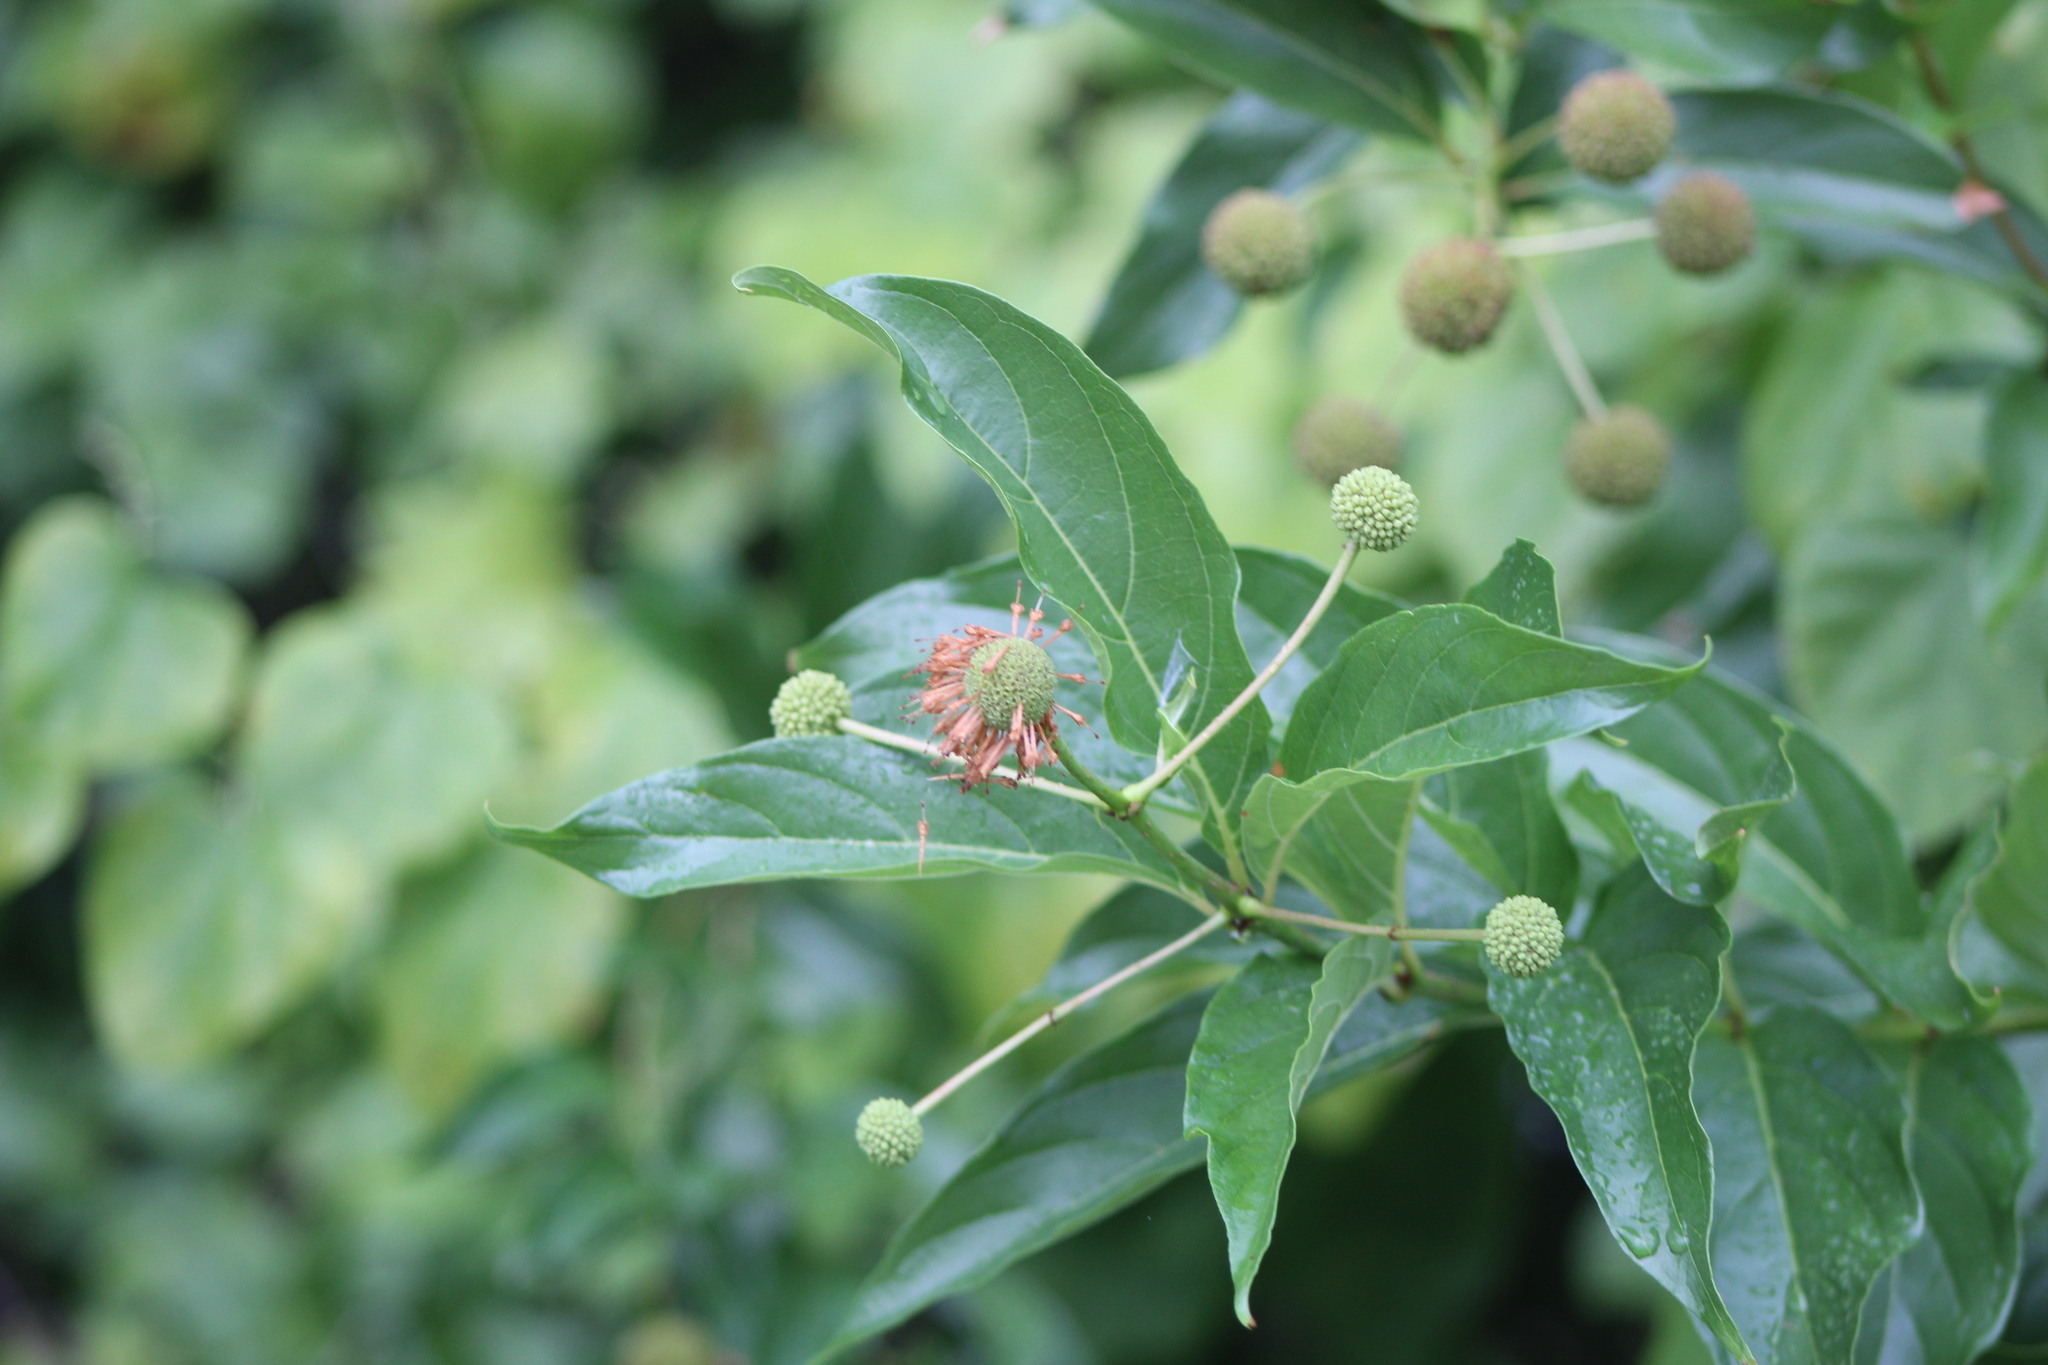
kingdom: Plantae
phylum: Tracheophyta
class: Magnoliopsida
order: Gentianales
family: Rubiaceae
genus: Cephalanthus
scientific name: Cephalanthus occidentalis
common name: Button-willow
